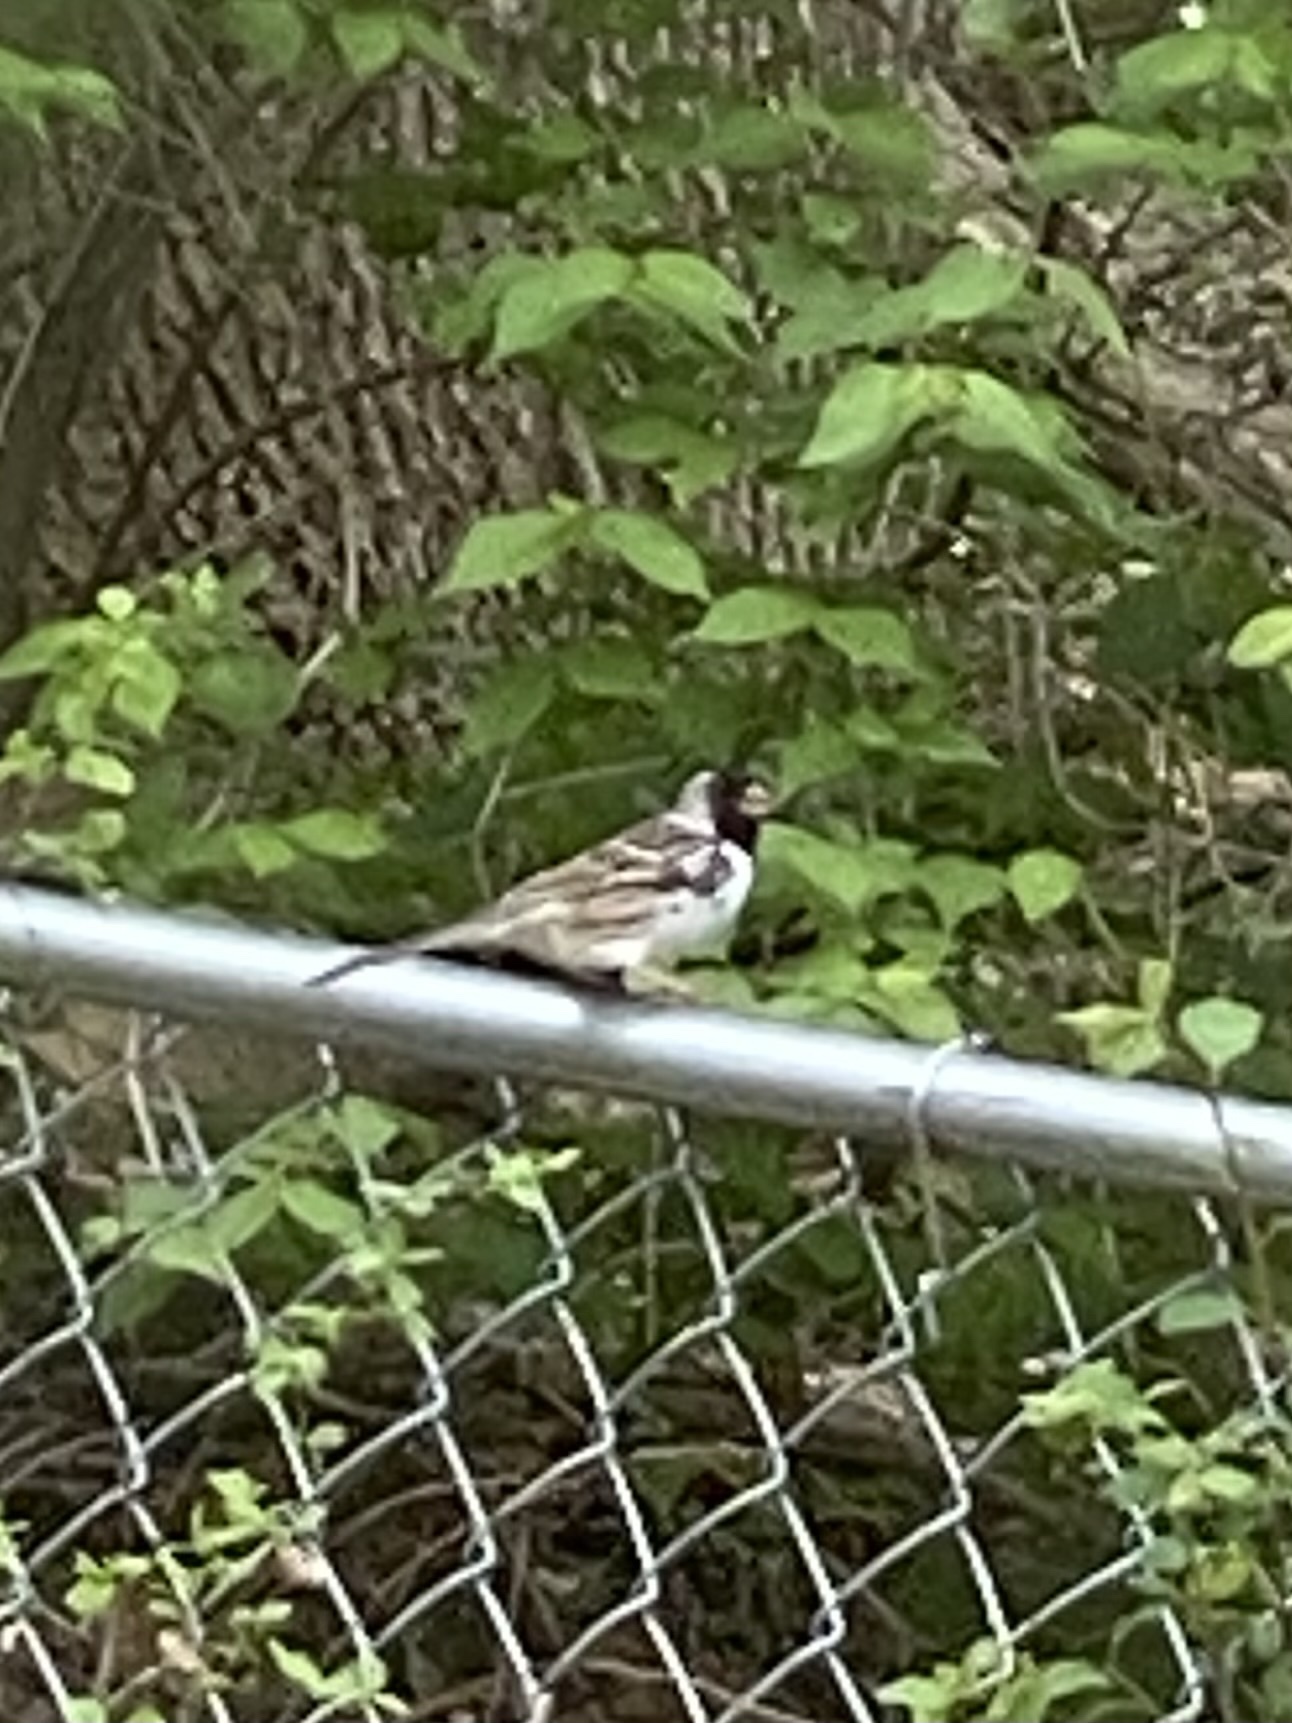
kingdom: Animalia
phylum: Chordata
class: Aves
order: Passeriformes
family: Passerellidae
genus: Zonotrichia
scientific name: Zonotrichia querula
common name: Harris's sparrow
